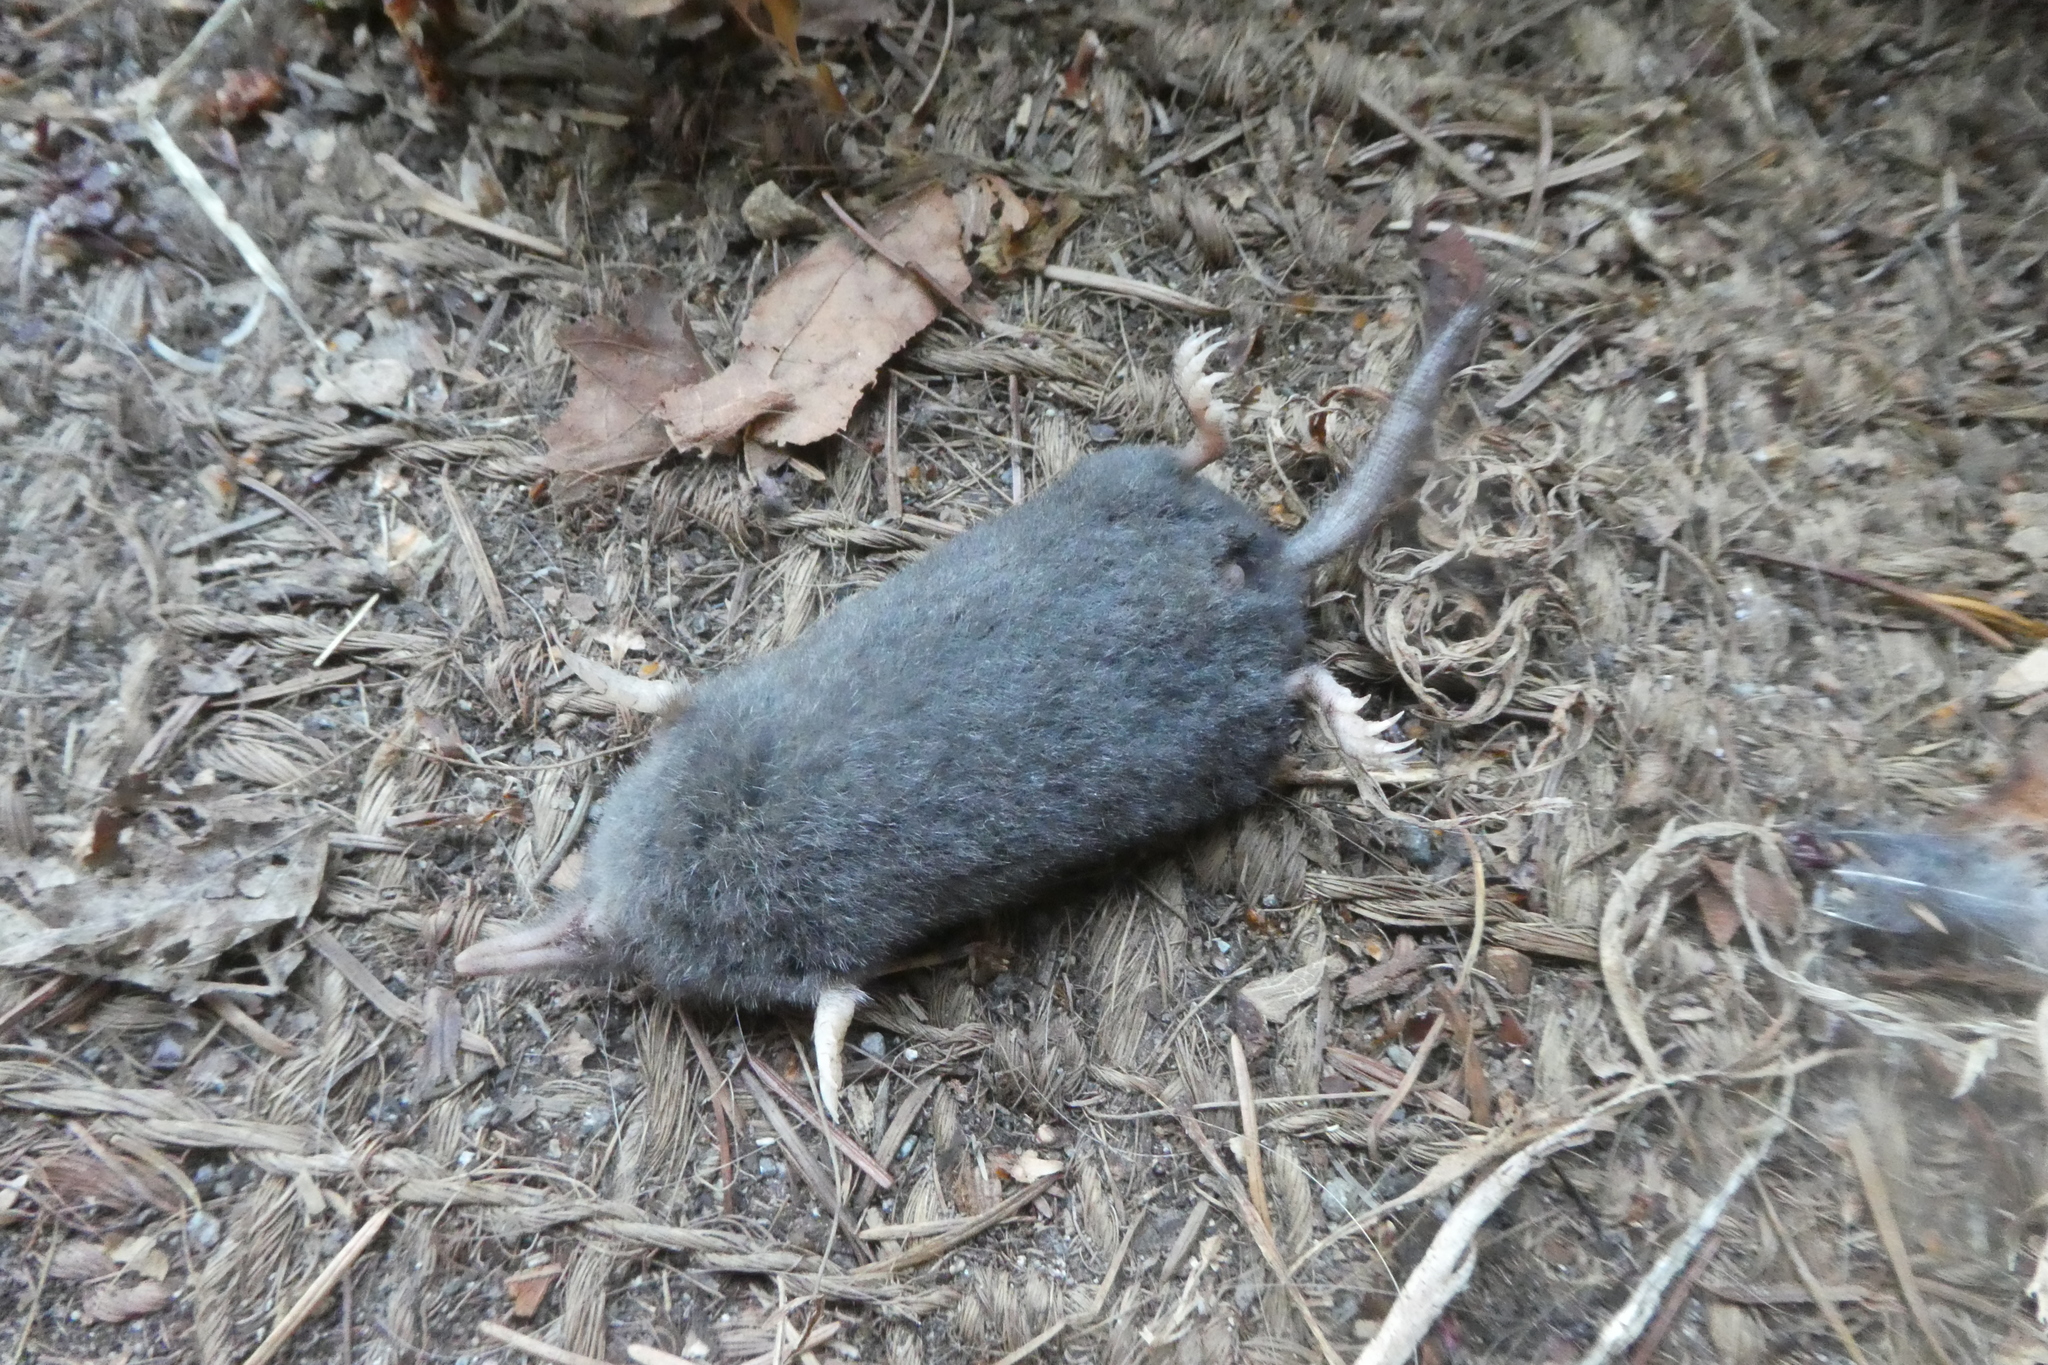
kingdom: Animalia
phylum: Chordata
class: Mammalia
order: Soricomorpha
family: Talpidae
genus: Neurotrichus
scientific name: Neurotrichus gibbsii
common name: American shrew mole
